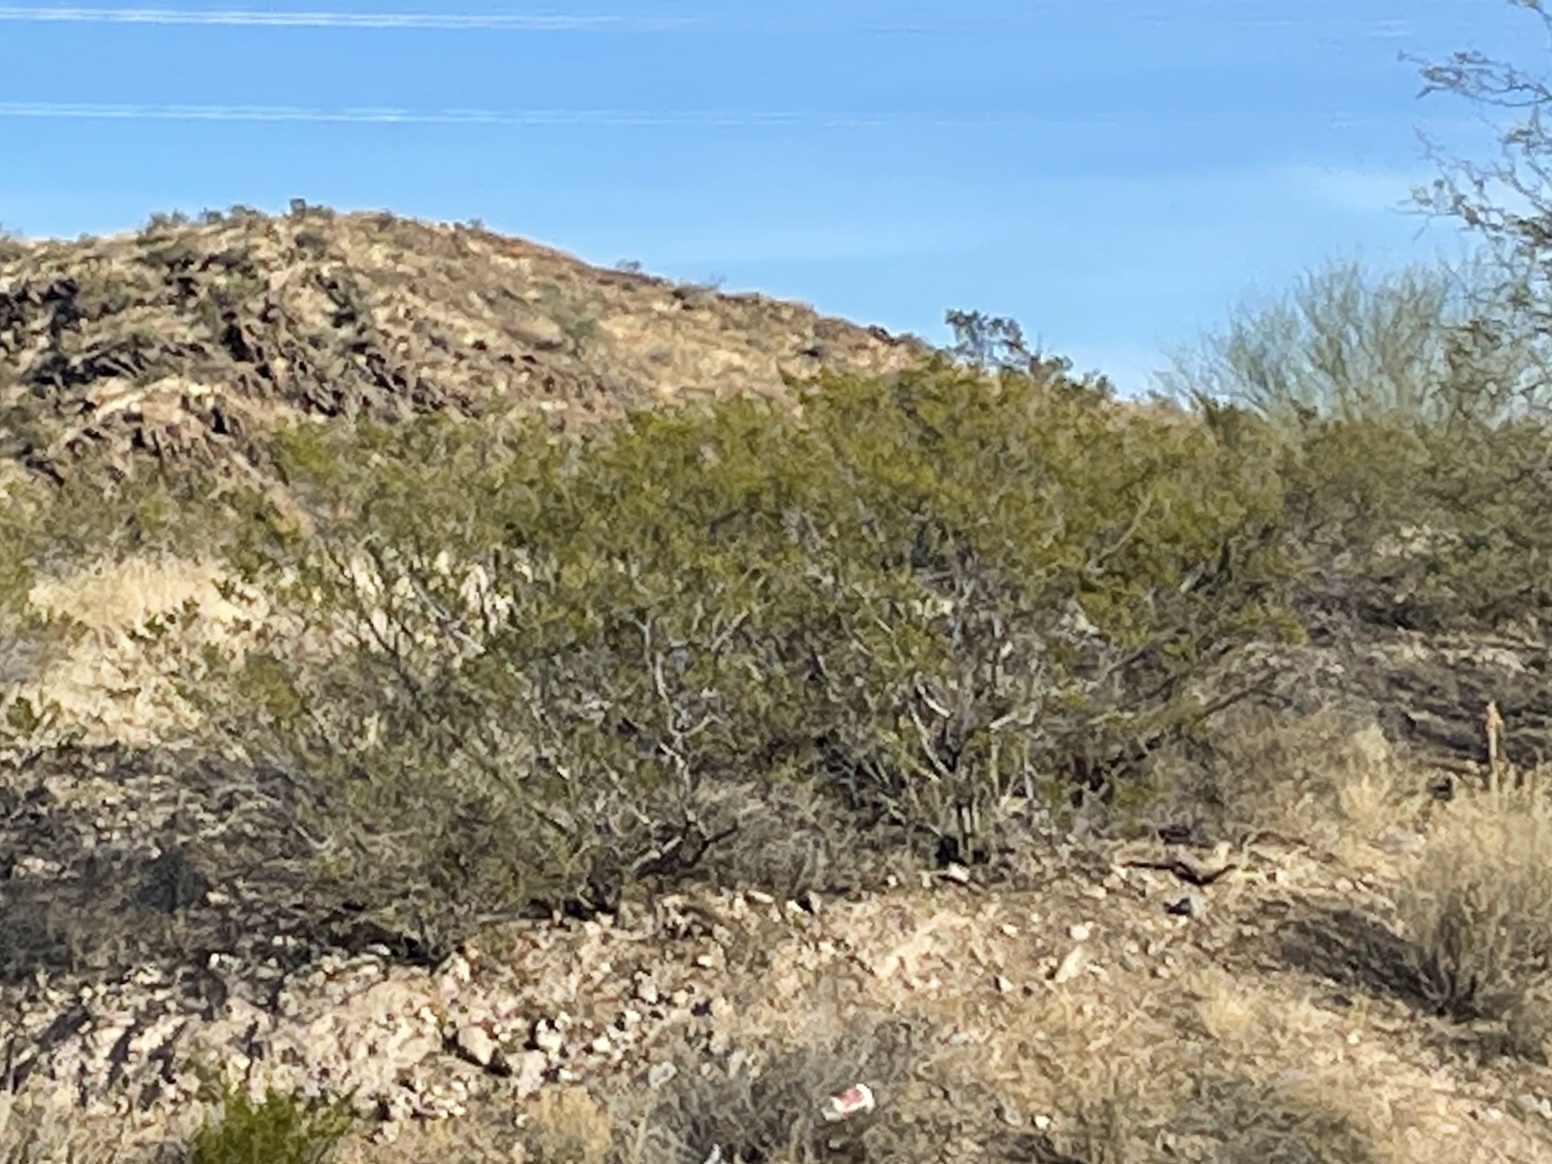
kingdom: Plantae
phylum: Tracheophyta
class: Magnoliopsida
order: Zygophyllales
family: Zygophyllaceae
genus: Larrea
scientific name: Larrea tridentata
